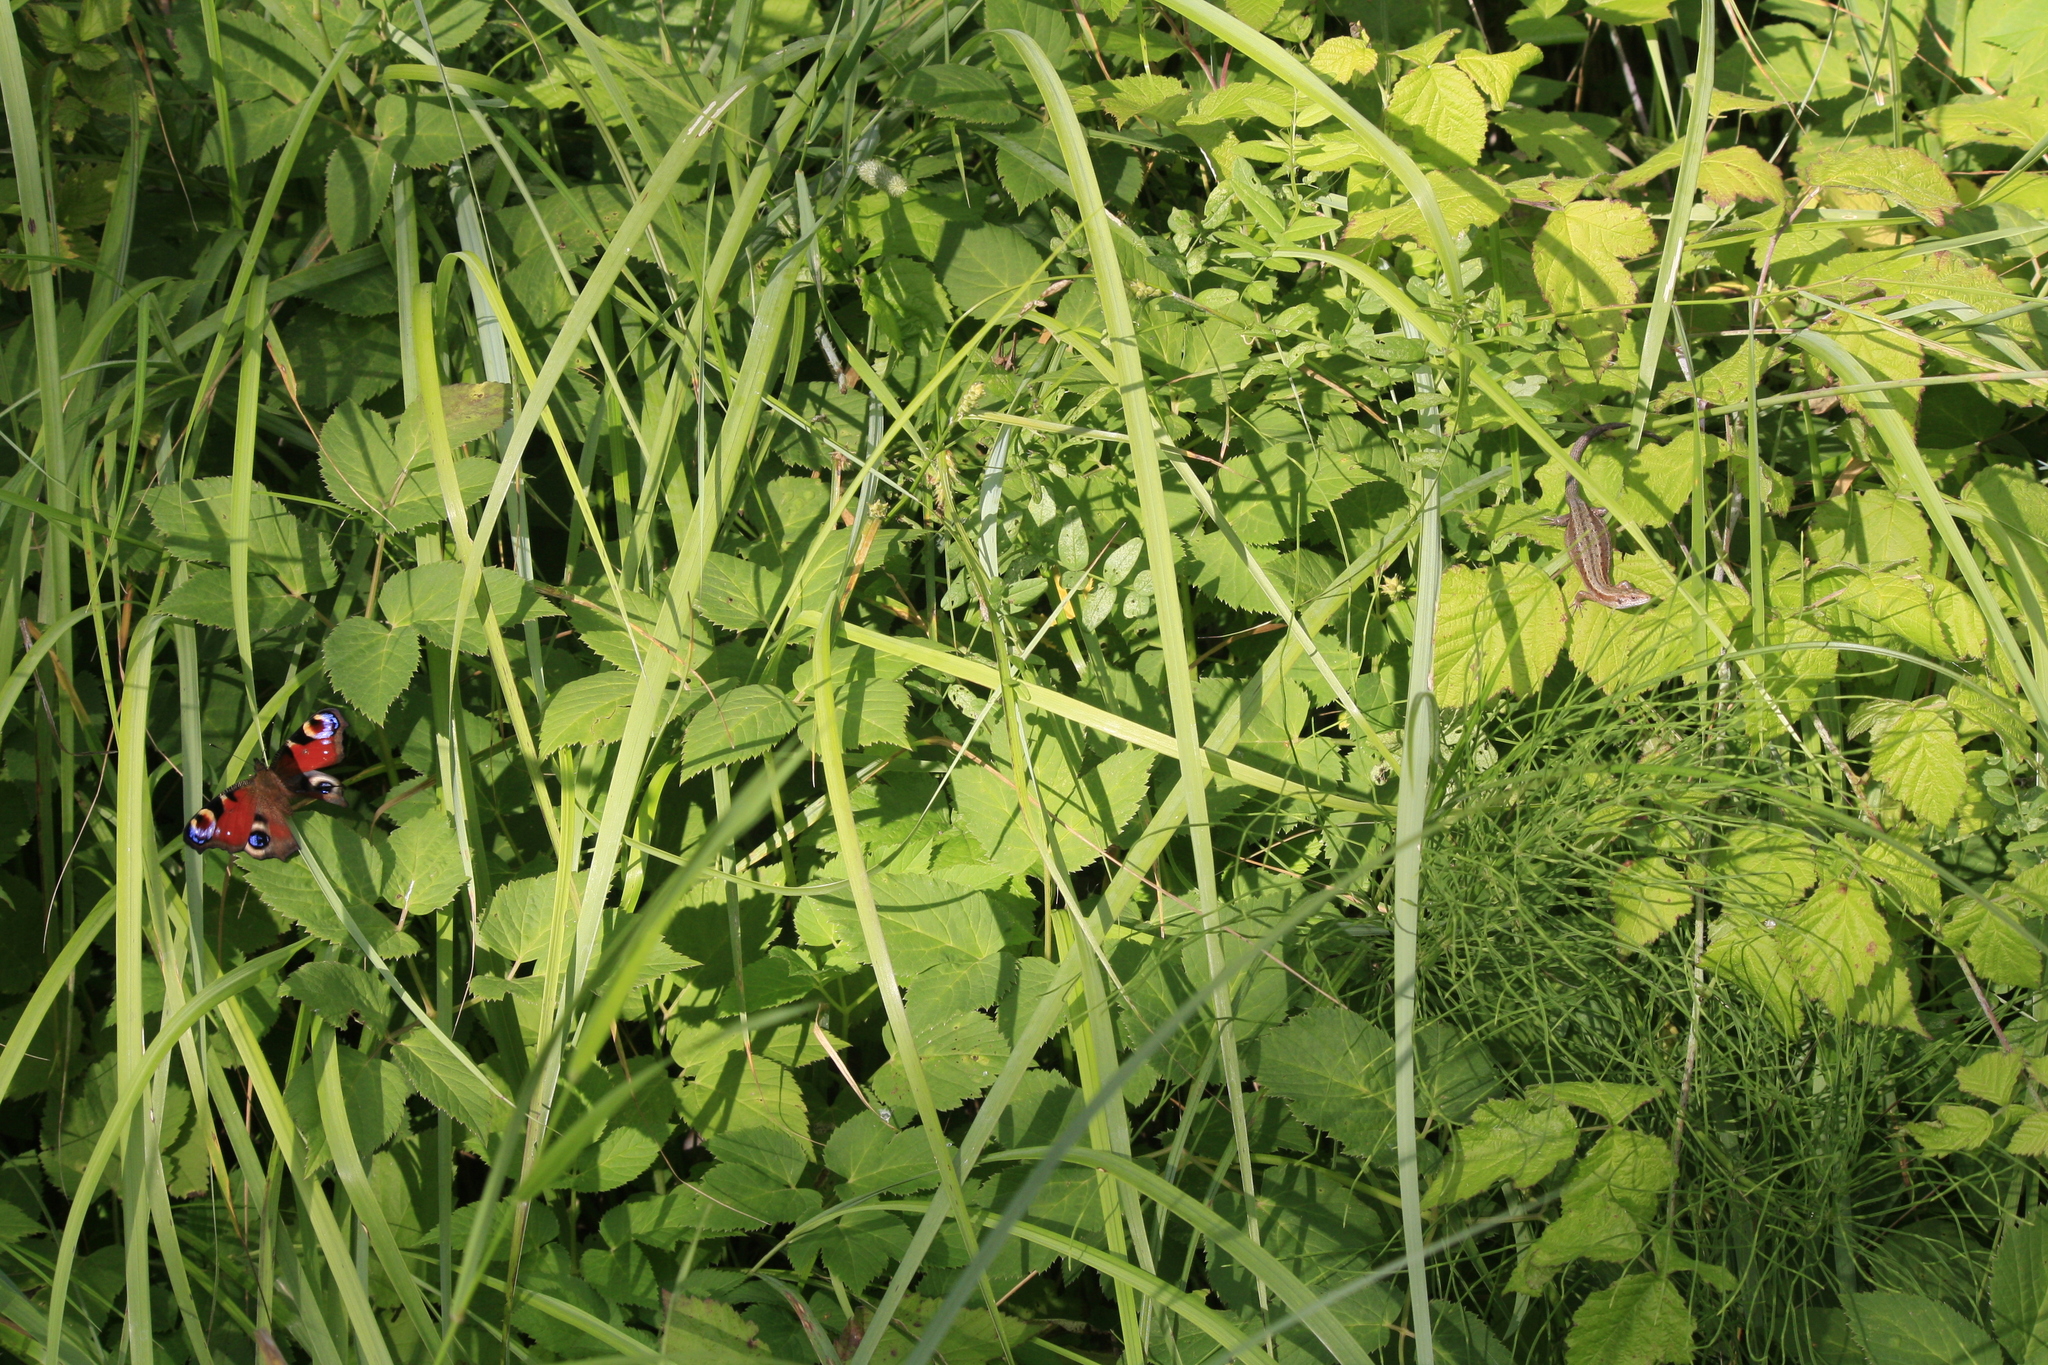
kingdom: Animalia
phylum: Chordata
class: Squamata
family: Lacertidae
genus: Zootoca
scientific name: Zootoca vivipara
